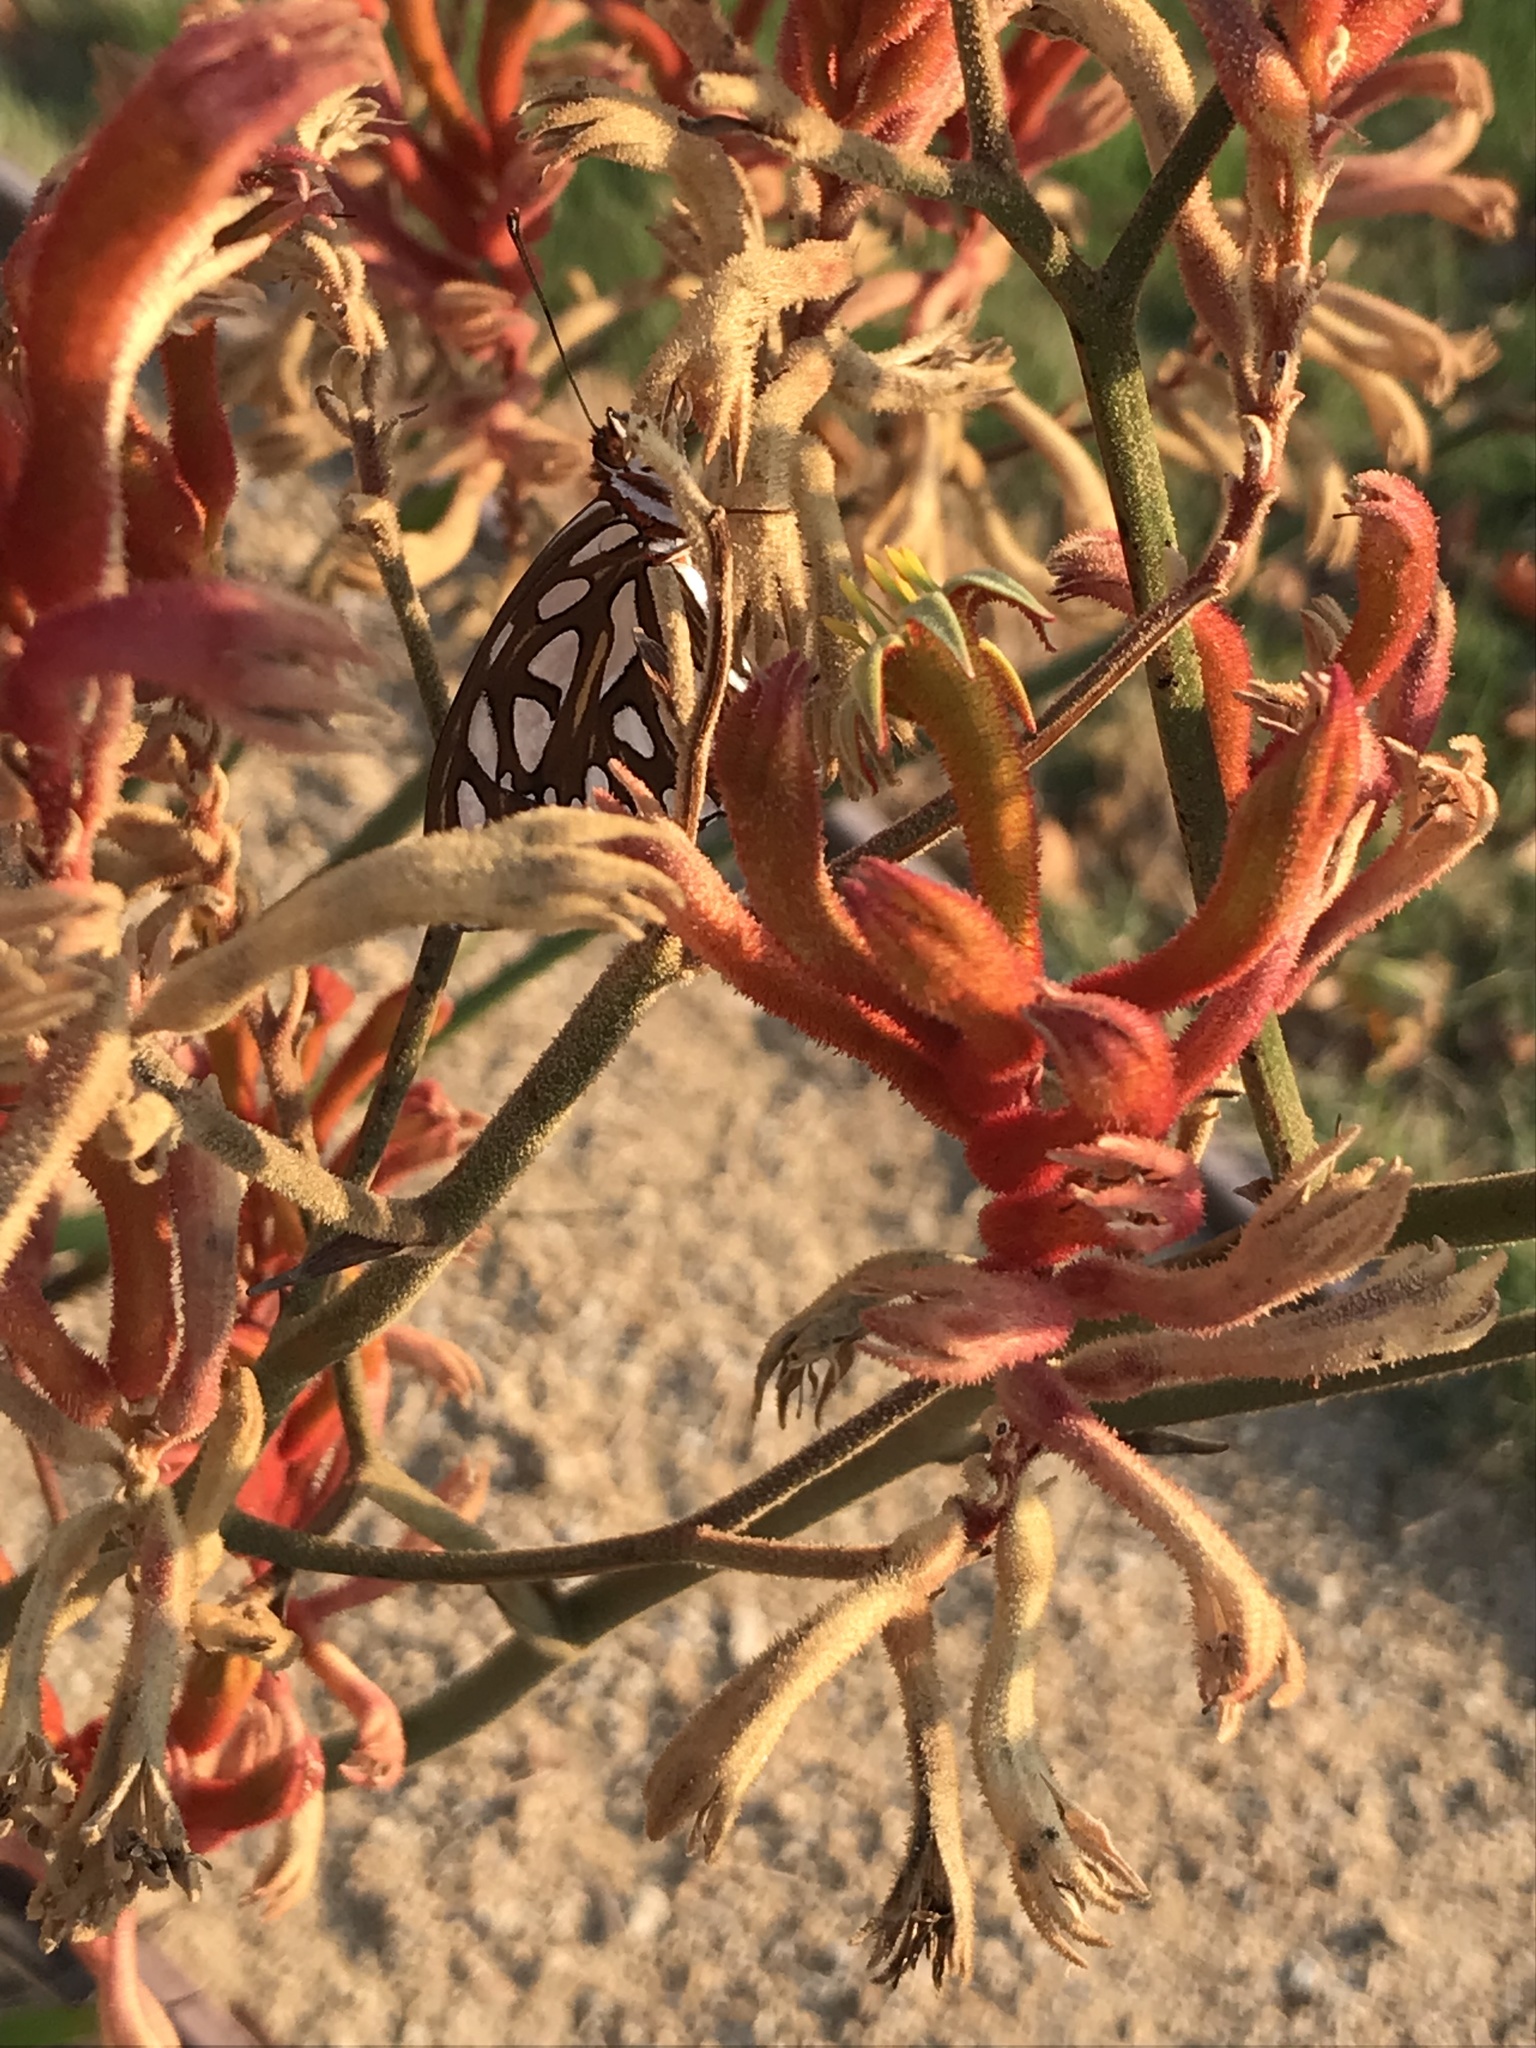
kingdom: Animalia
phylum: Arthropoda
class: Insecta
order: Lepidoptera
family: Nymphalidae
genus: Dione
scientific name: Dione vanillae
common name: Gulf fritillary
